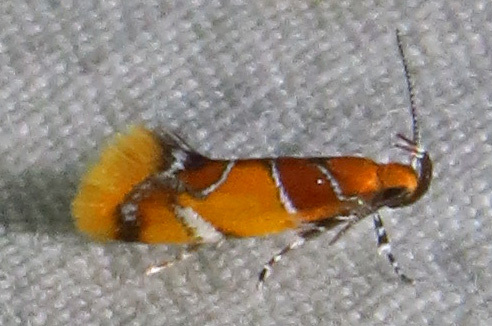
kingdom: Animalia
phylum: Arthropoda
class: Insecta
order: Lepidoptera
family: Oecophoridae
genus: Callima
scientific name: Callima argenticinctella
